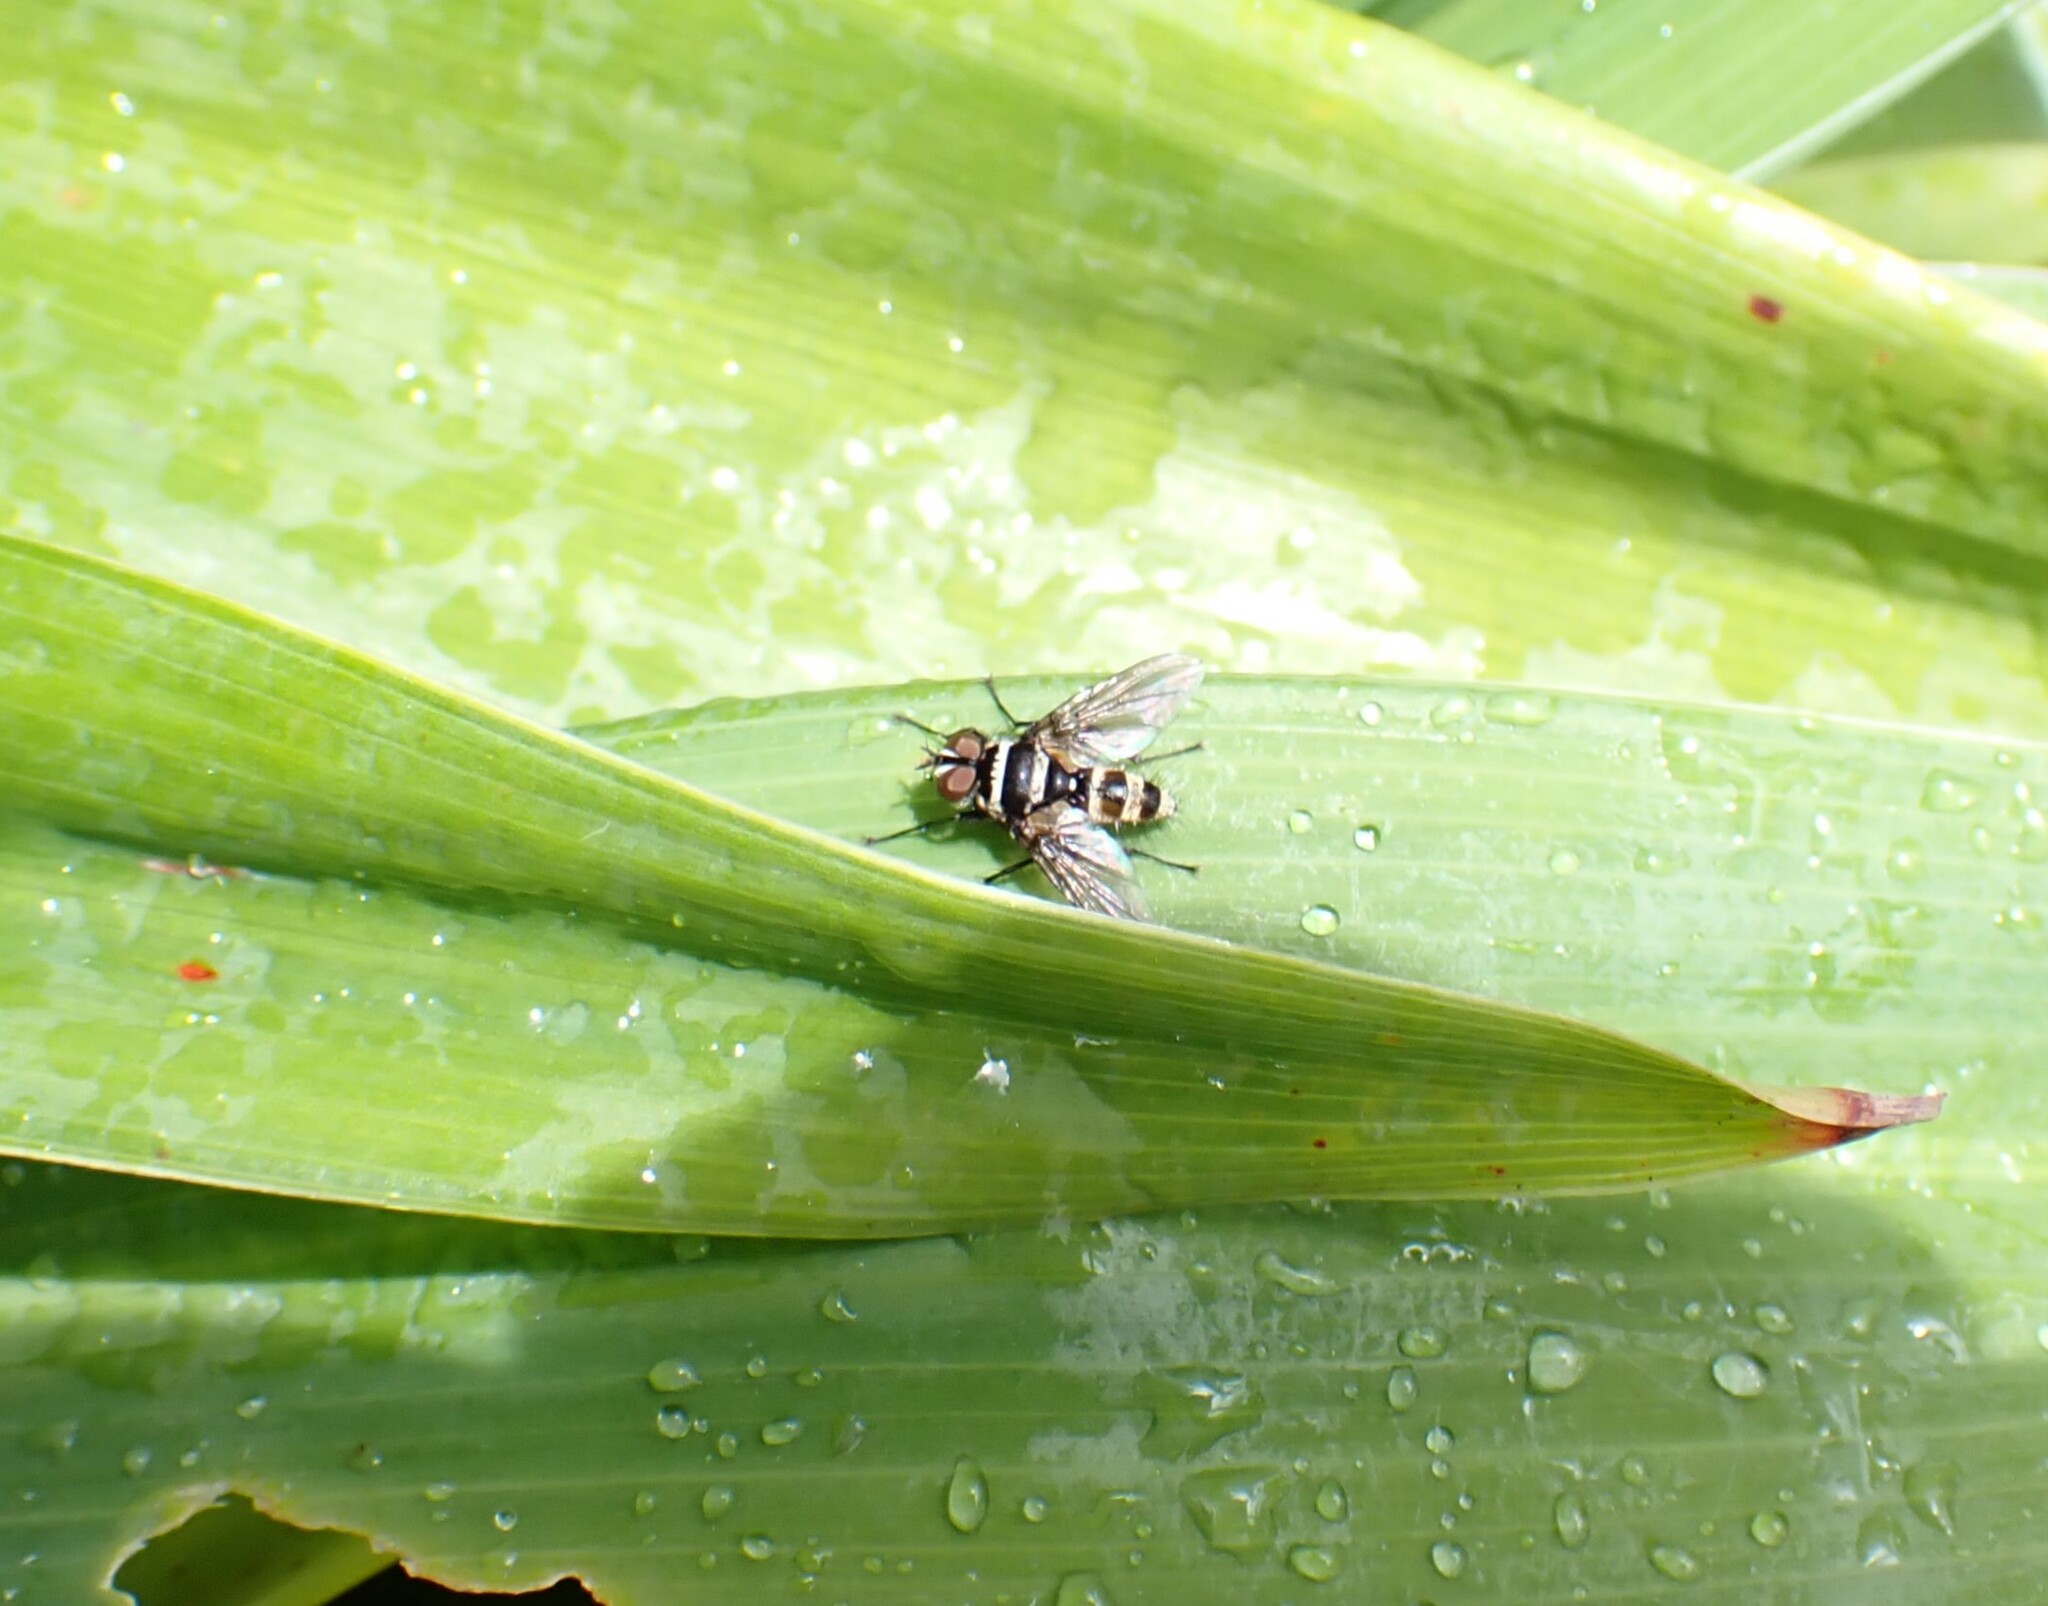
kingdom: Animalia
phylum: Arthropoda
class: Insecta
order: Diptera
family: Tachinidae
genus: Trigonospila
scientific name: Trigonospila brevifacies
